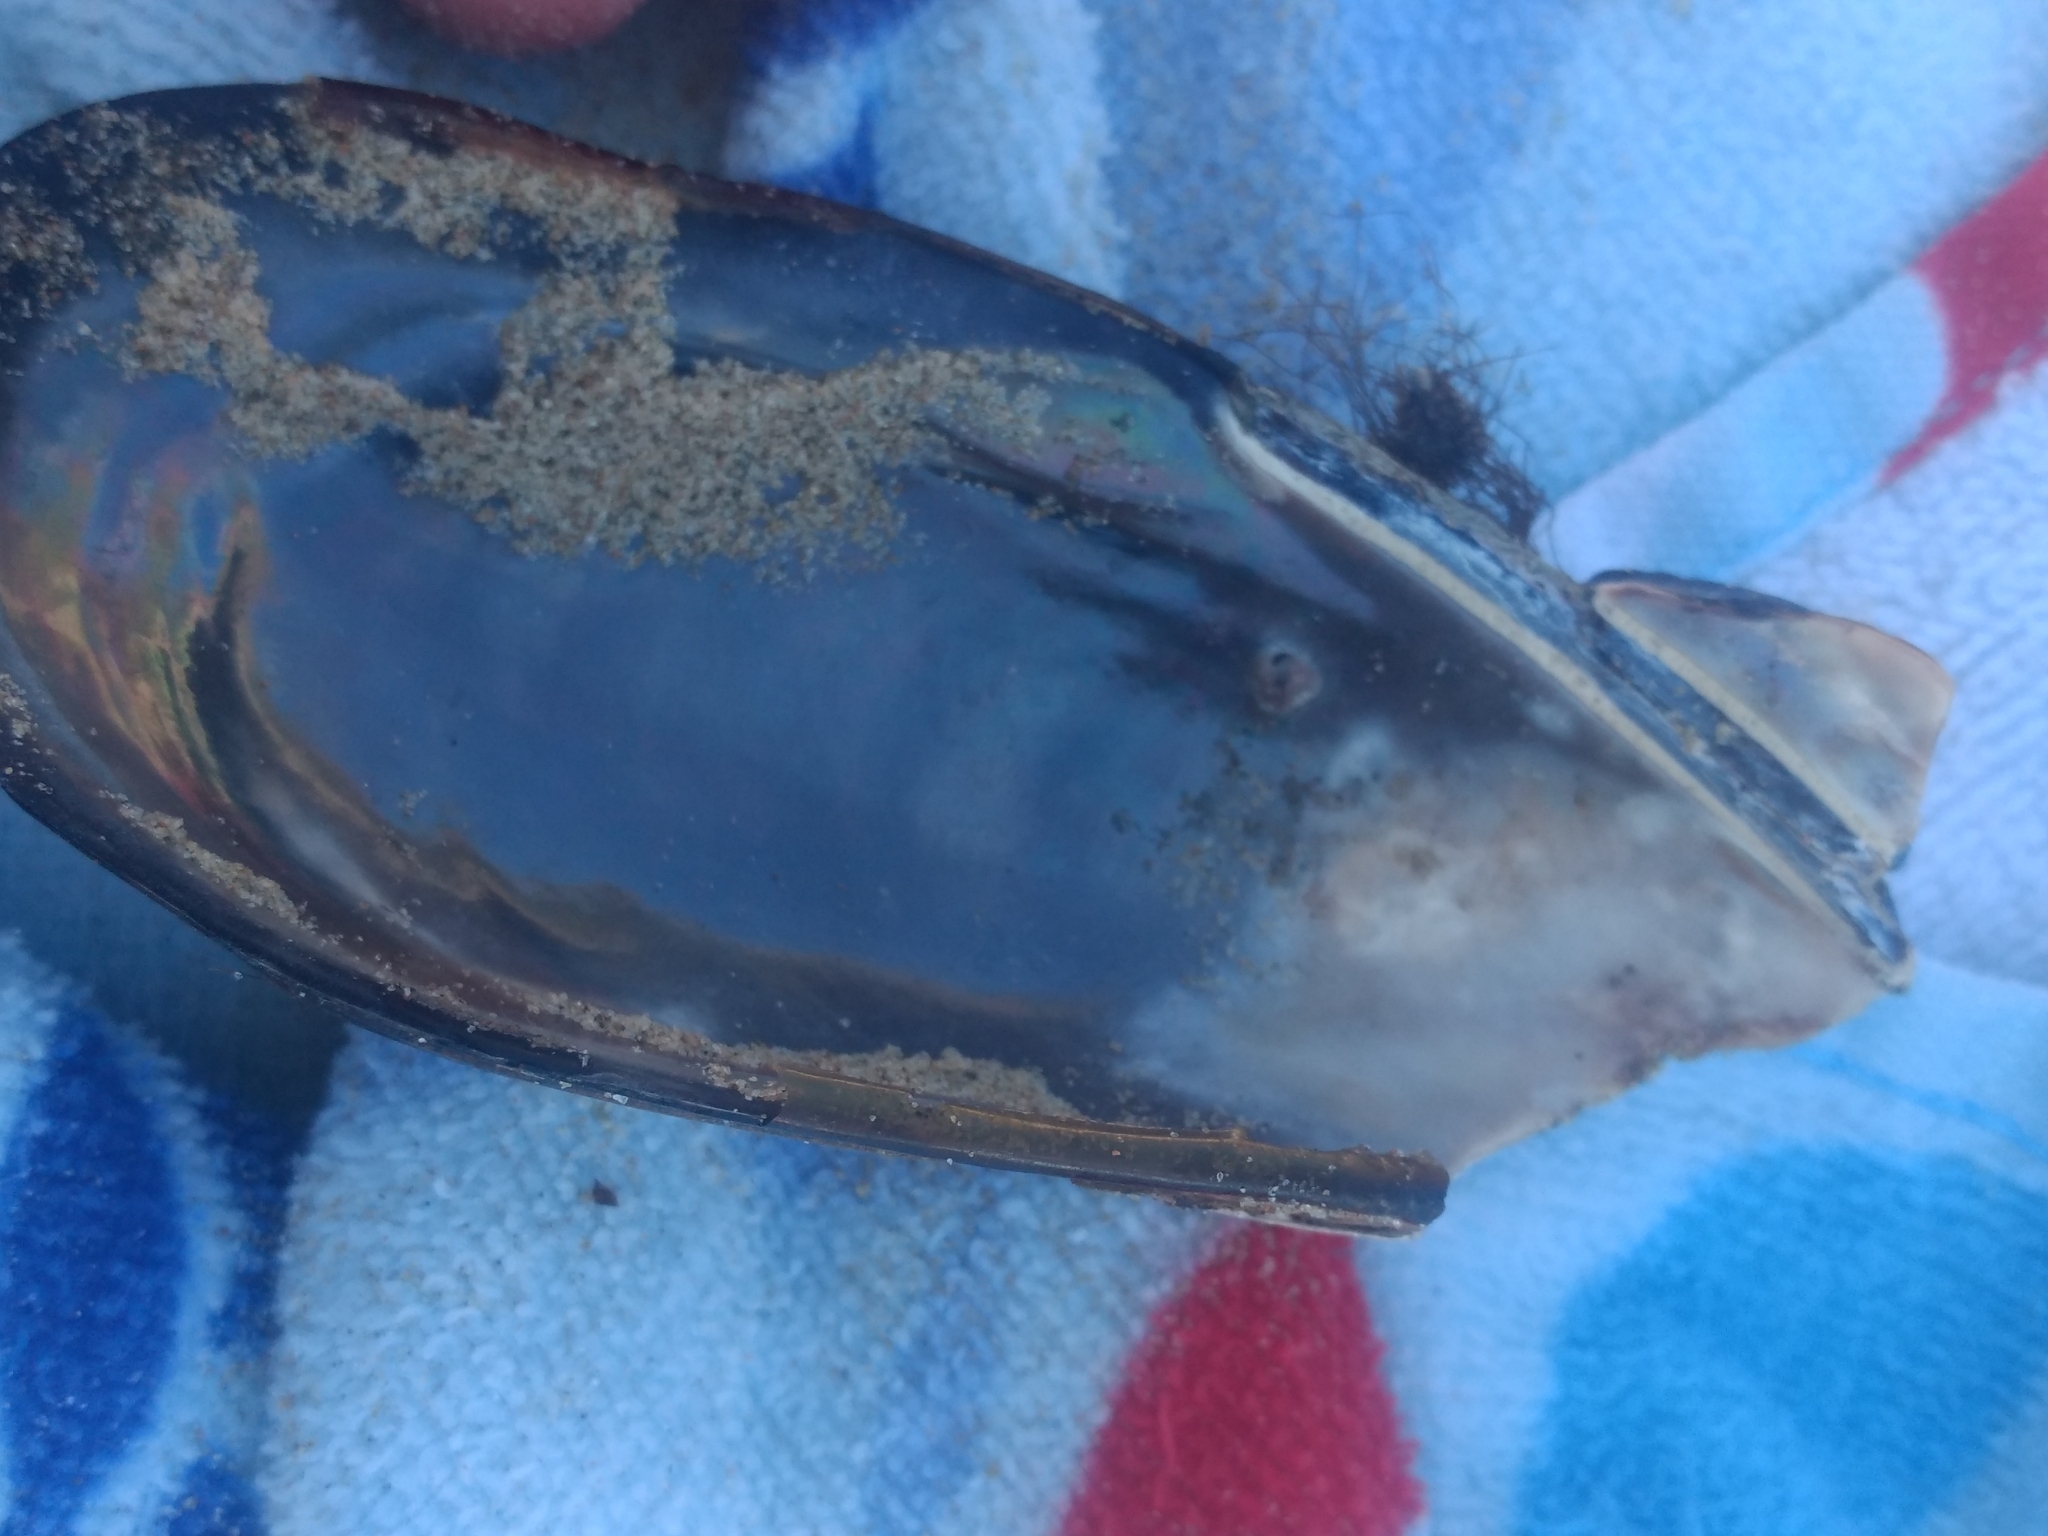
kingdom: Animalia
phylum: Mollusca
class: Bivalvia
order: Mytilida
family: Mytilidae
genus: Mytilus
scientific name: Mytilus californianus
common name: California mussel
